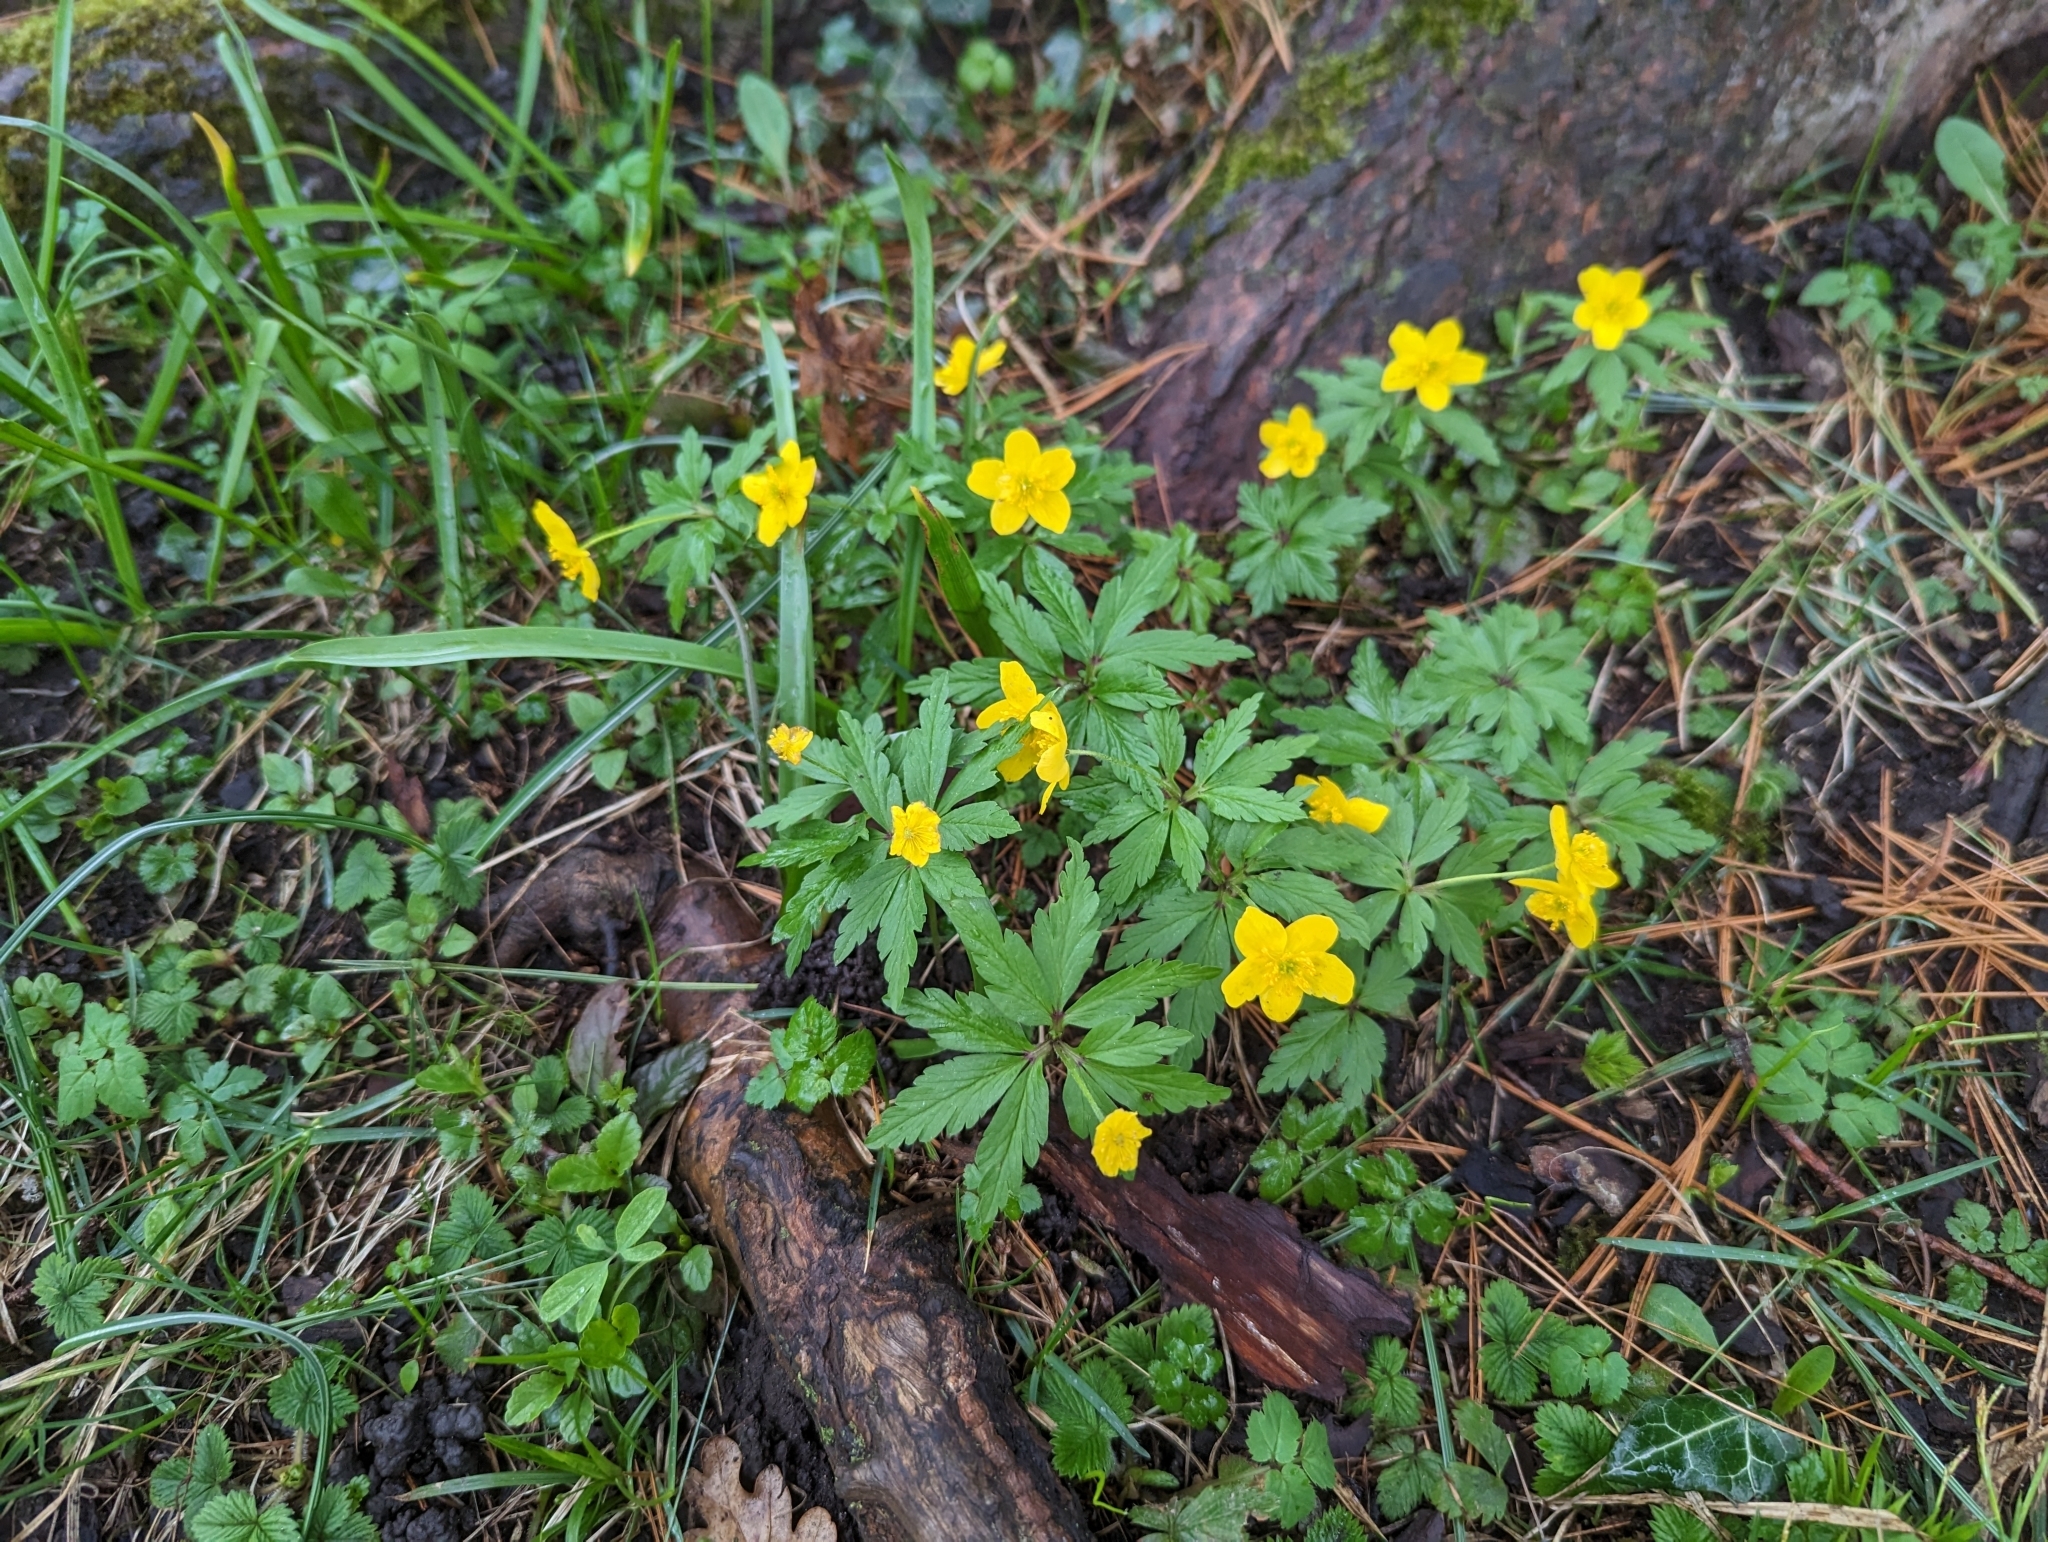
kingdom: Plantae
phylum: Tracheophyta
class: Magnoliopsida
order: Ranunculales
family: Ranunculaceae
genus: Anemone
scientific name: Anemone ranunculoides
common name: Yellow anemone
